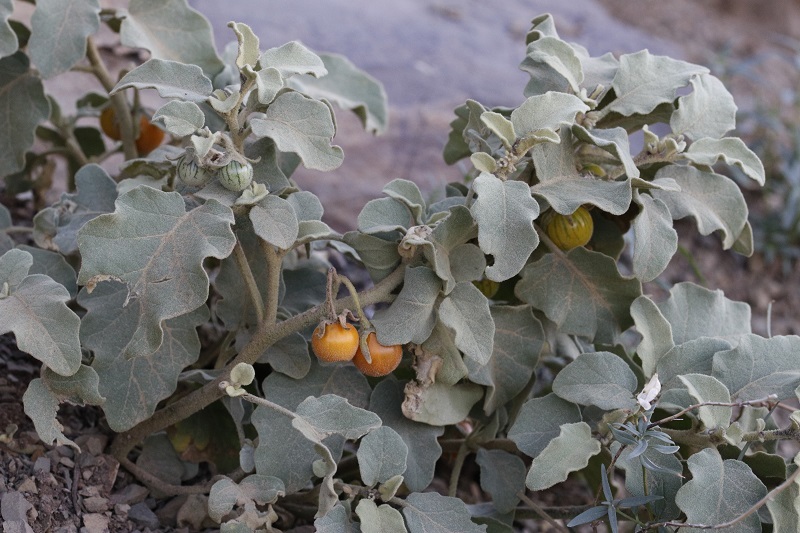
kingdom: Plantae
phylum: Tracheophyta
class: Magnoliopsida
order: Solanales
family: Solanaceae
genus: Solanum
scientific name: Solanum tomentosum
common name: Wild aubergine
